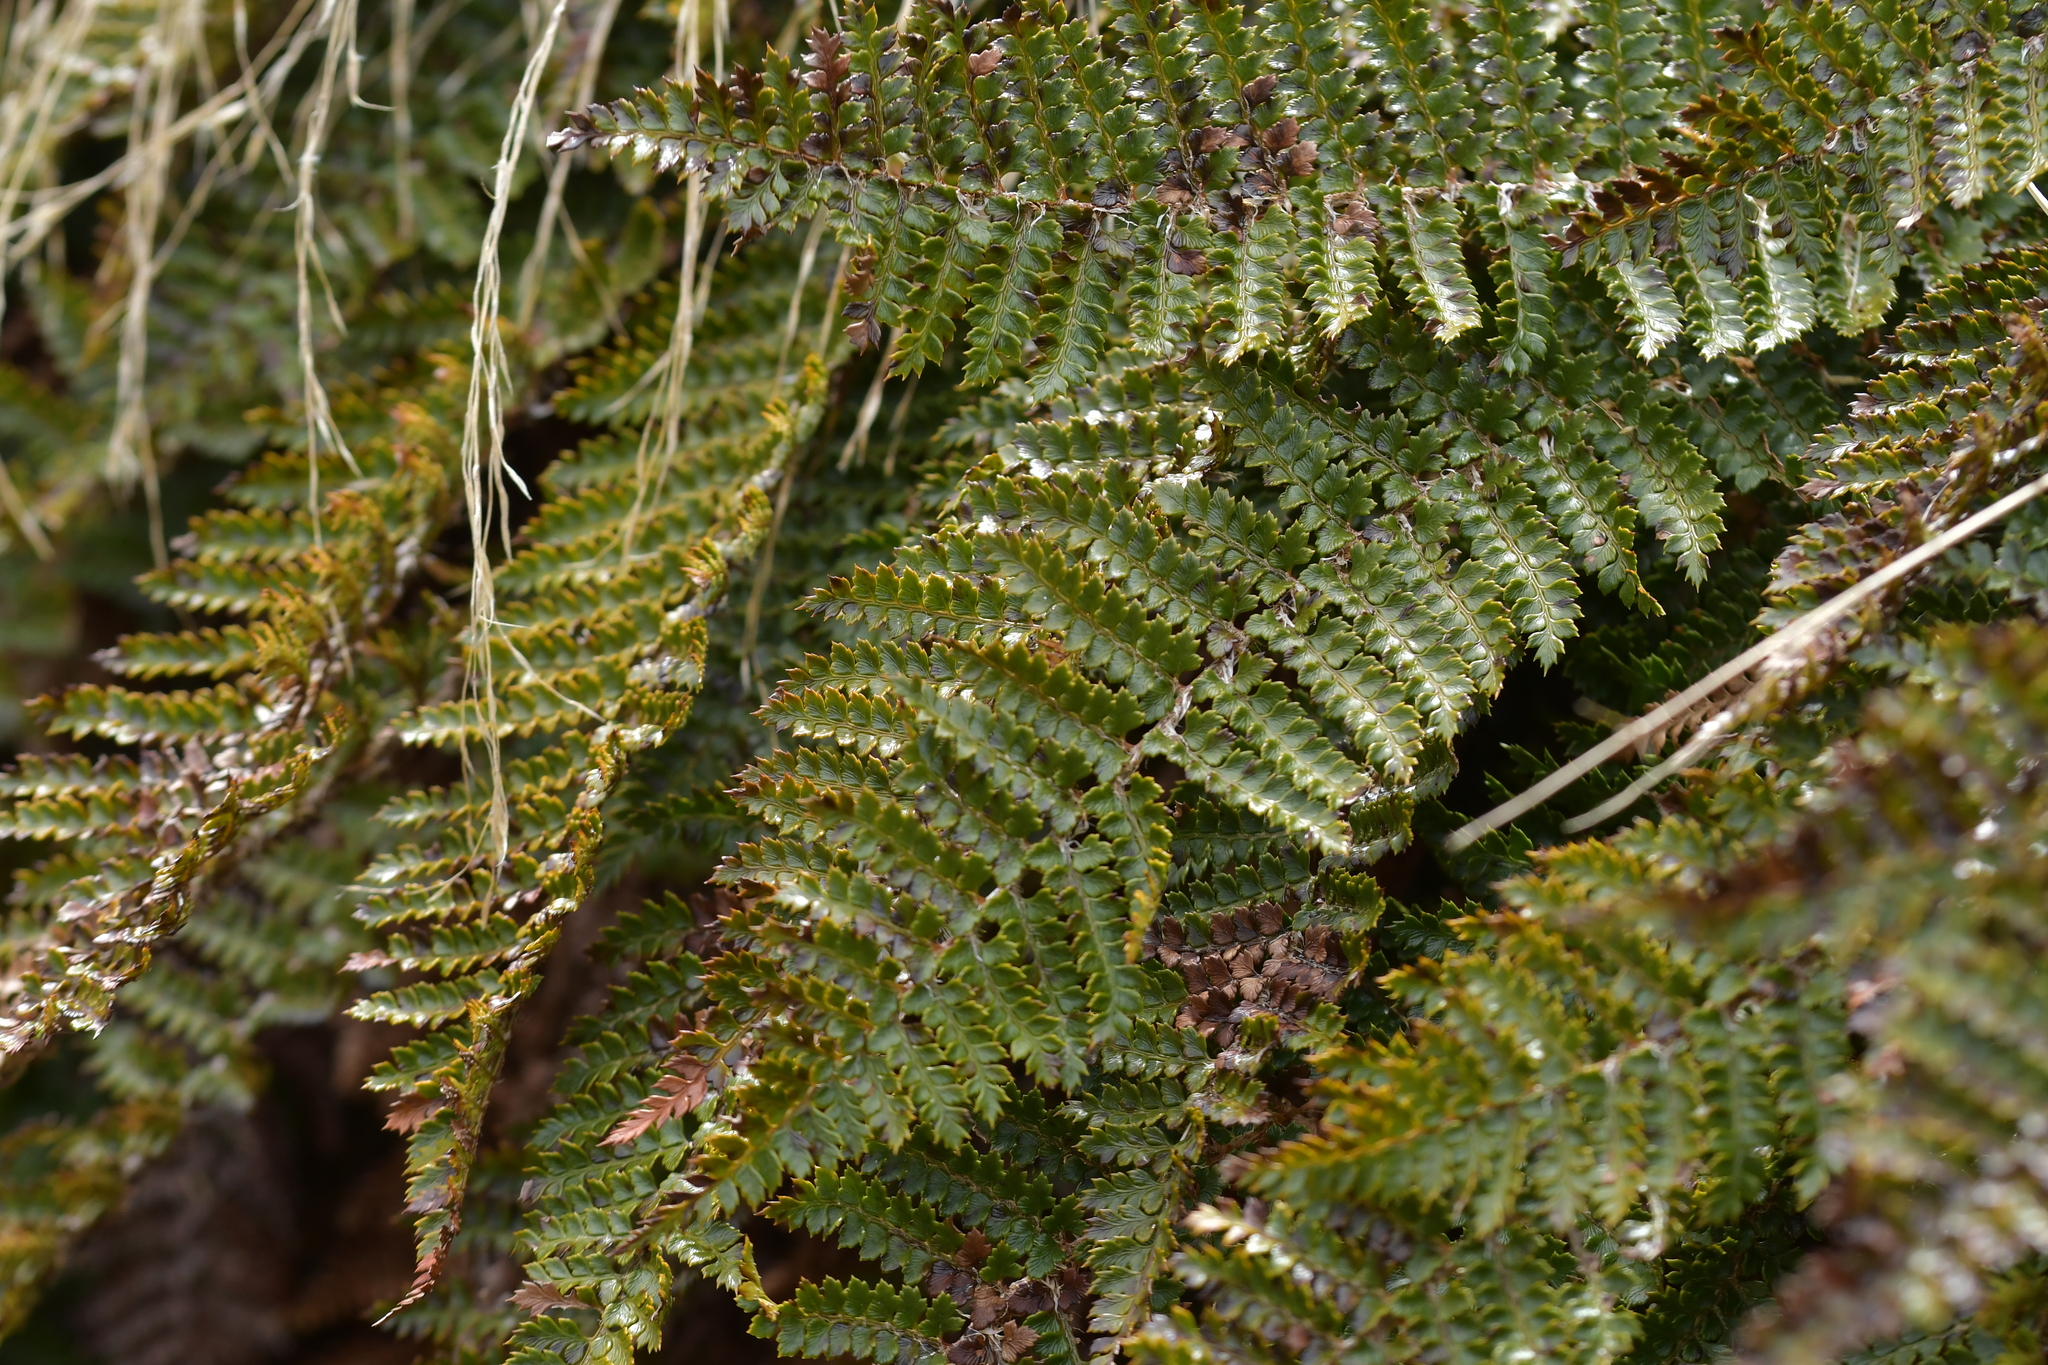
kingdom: Plantae
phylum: Tracheophyta
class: Polypodiopsida
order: Polypodiales
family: Dryopteridaceae
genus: Polystichum
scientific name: Polystichum vestitum
